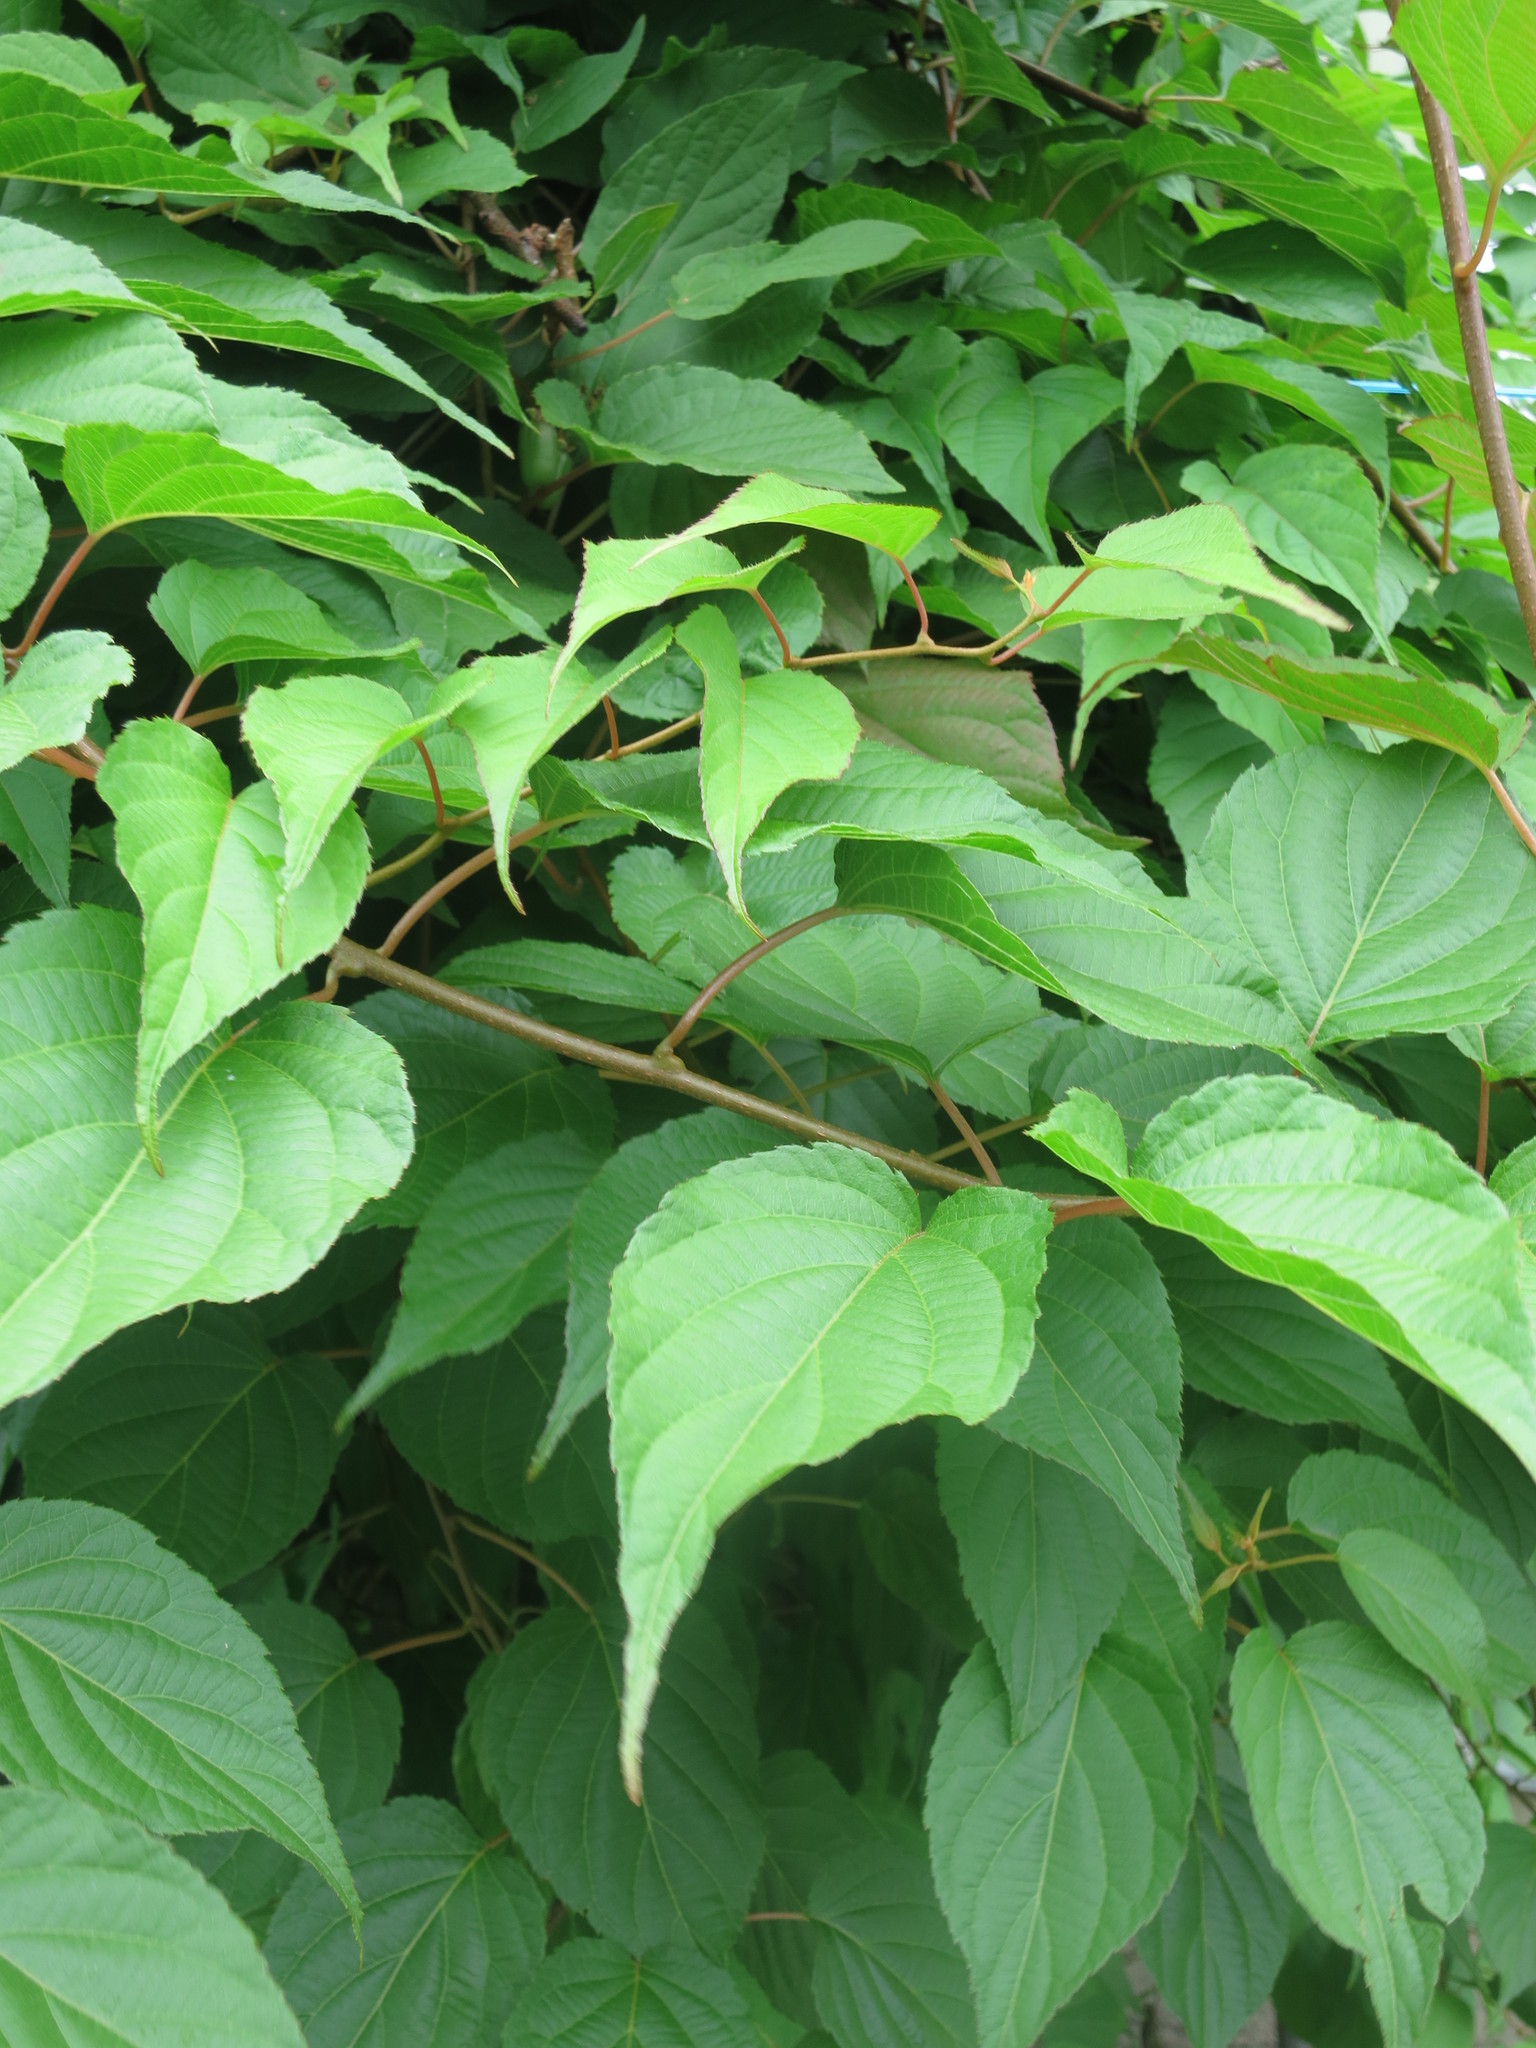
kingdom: Plantae
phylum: Tracheophyta
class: Magnoliopsida
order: Ericales
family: Actinidiaceae
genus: Actinidia
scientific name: Actinidia kolomikta
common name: Arctic beauty kiwi
